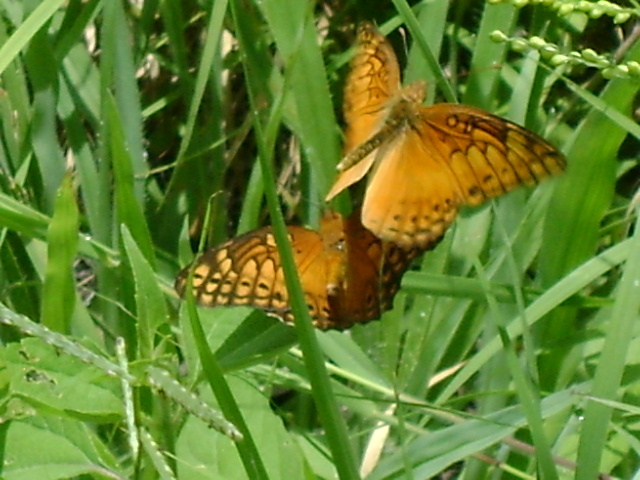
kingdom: Animalia
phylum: Arthropoda
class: Insecta
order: Lepidoptera
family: Nymphalidae
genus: Euptoieta
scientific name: Euptoieta hegesia
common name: Mexican fritillary
